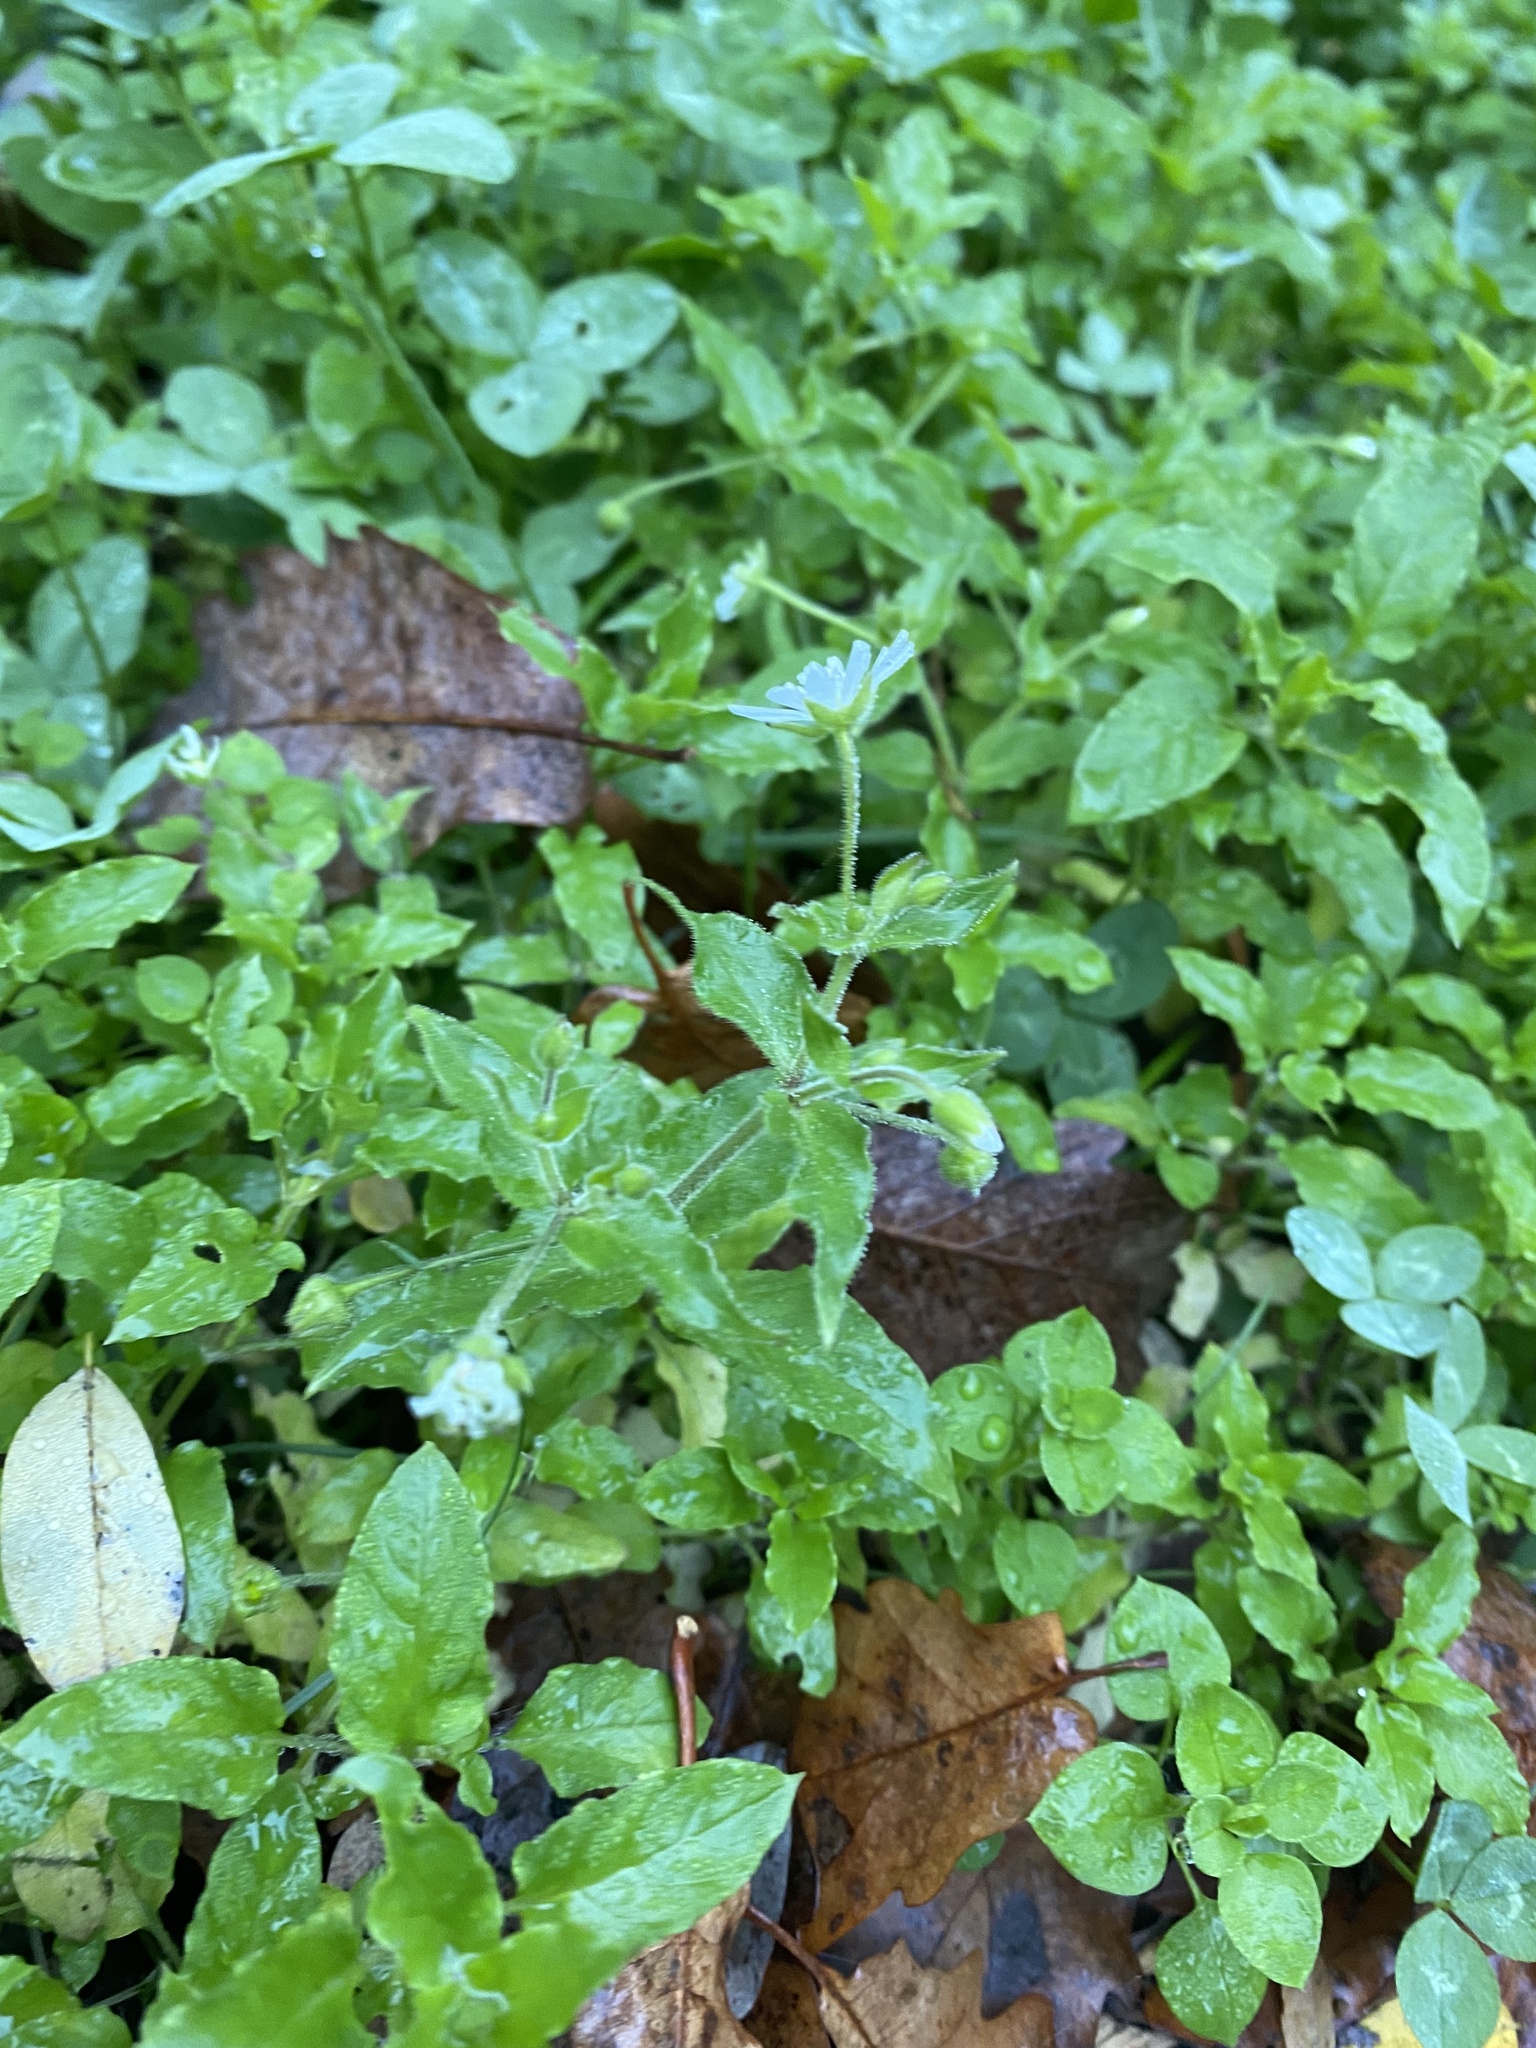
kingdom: Plantae
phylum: Tracheophyta
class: Magnoliopsida
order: Caryophyllales
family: Caryophyllaceae
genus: Stellaria
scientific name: Stellaria aquatica
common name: Water chickweed
